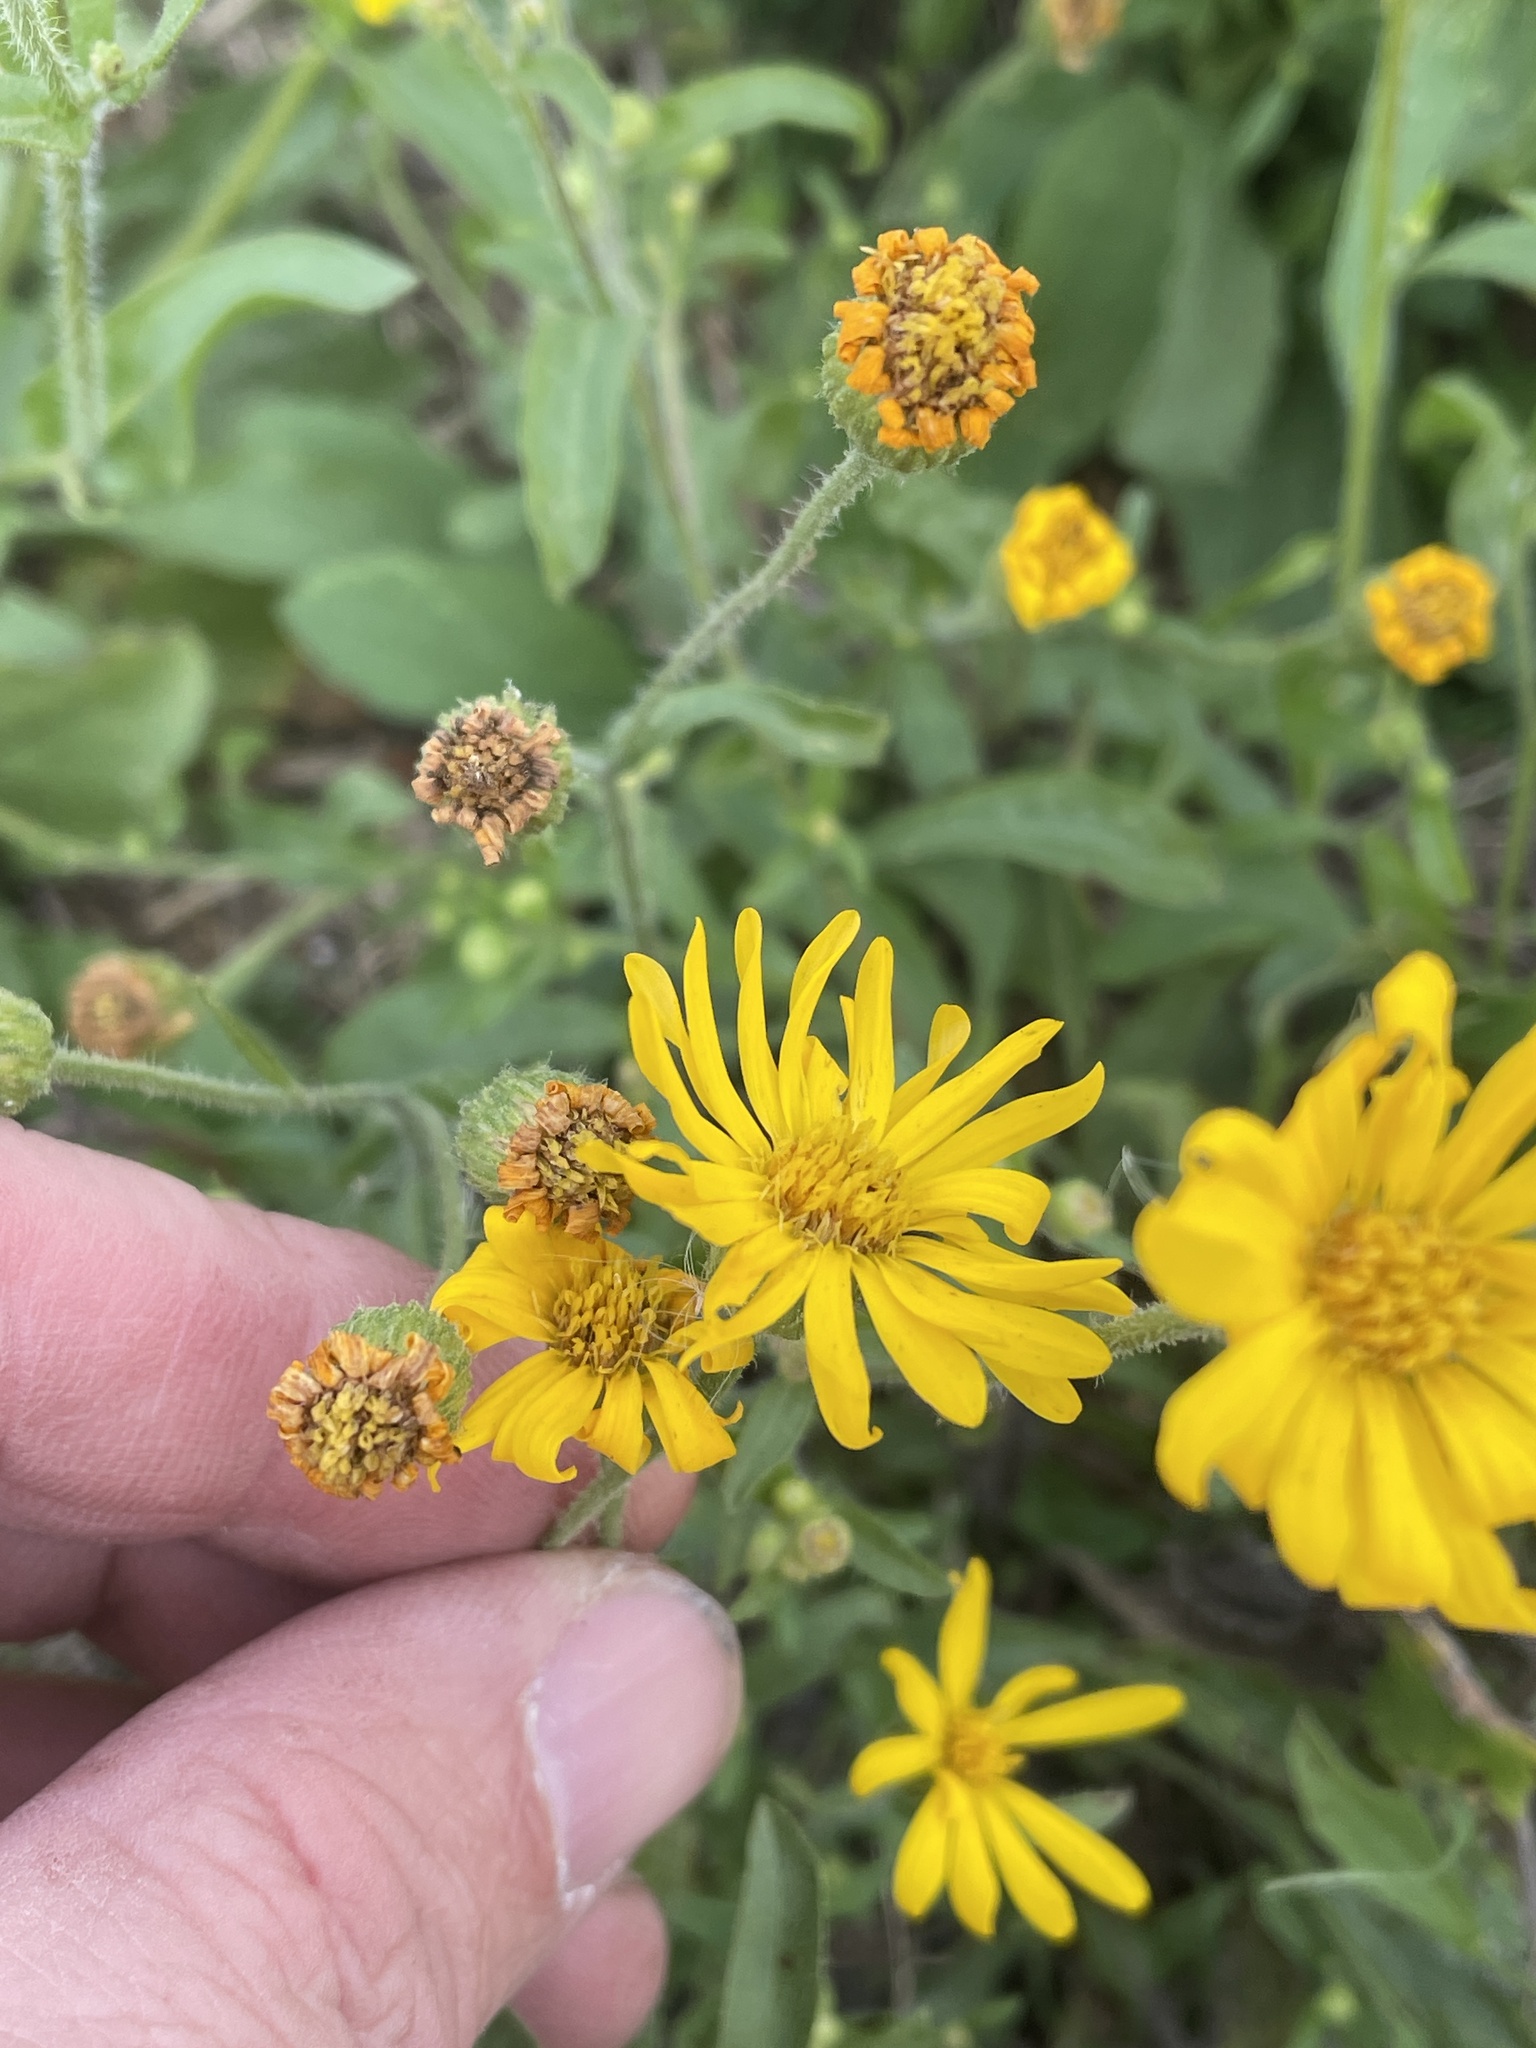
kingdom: Plantae
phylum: Tracheophyta
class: Magnoliopsida
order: Asterales
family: Asteraceae
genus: Heterotheca
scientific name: Heterotheca subaxillaris
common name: Camphorweed
